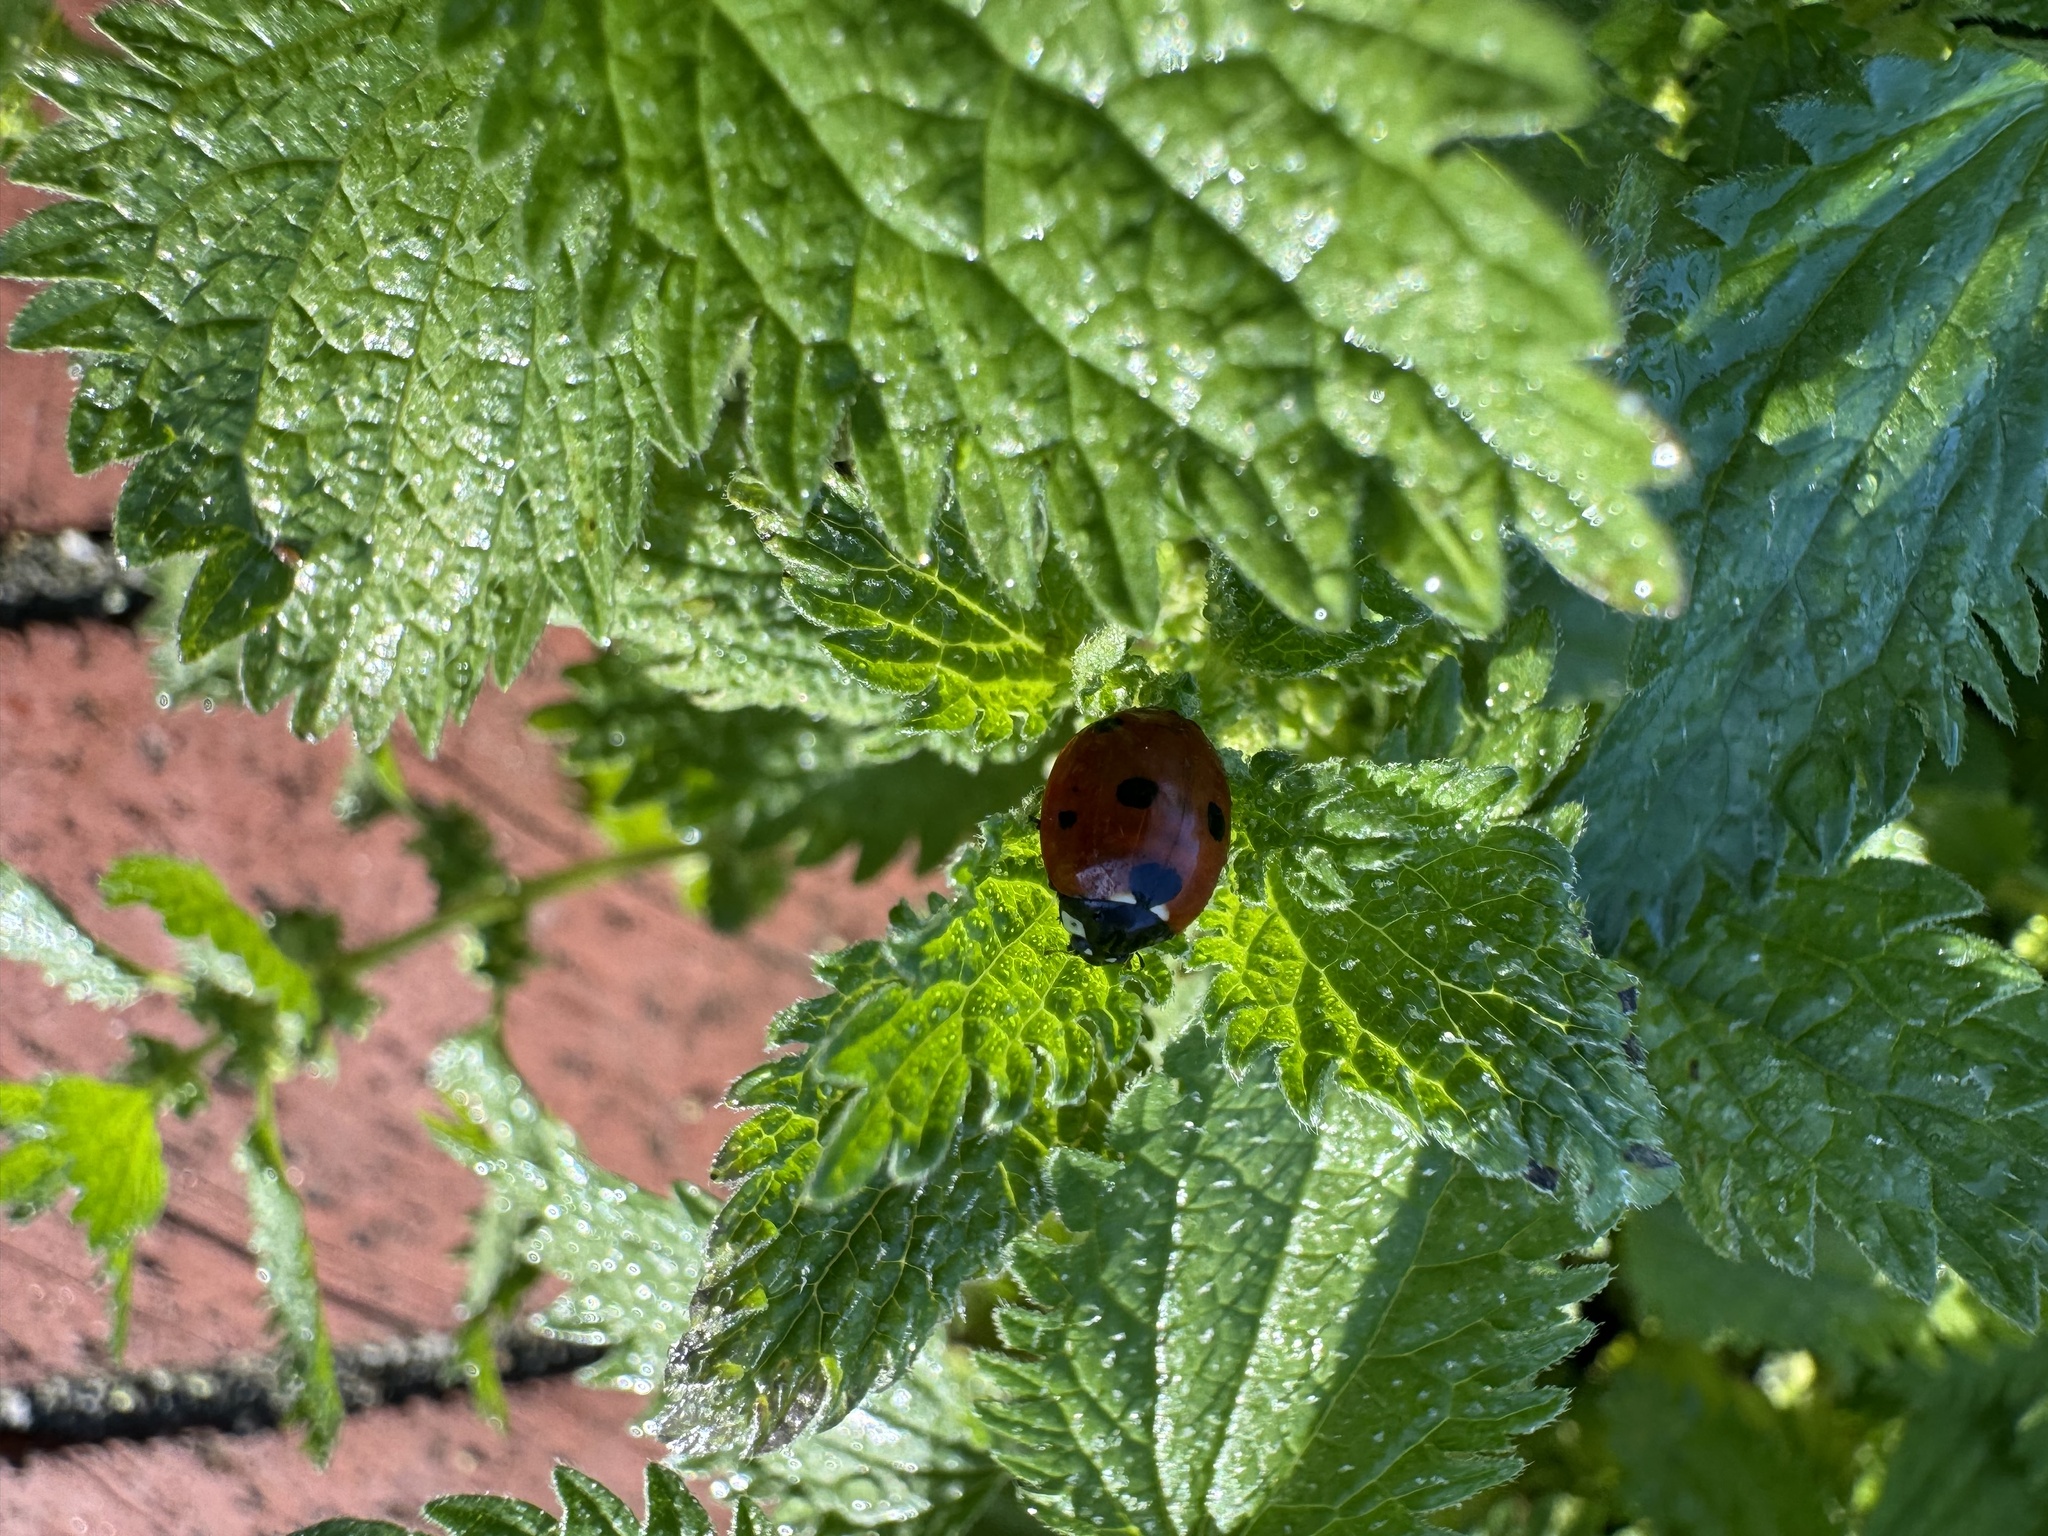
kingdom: Animalia
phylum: Arthropoda
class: Insecta
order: Coleoptera
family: Coccinellidae
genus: Coccinella
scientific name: Coccinella septempunctata
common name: Sevenspotted lady beetle
